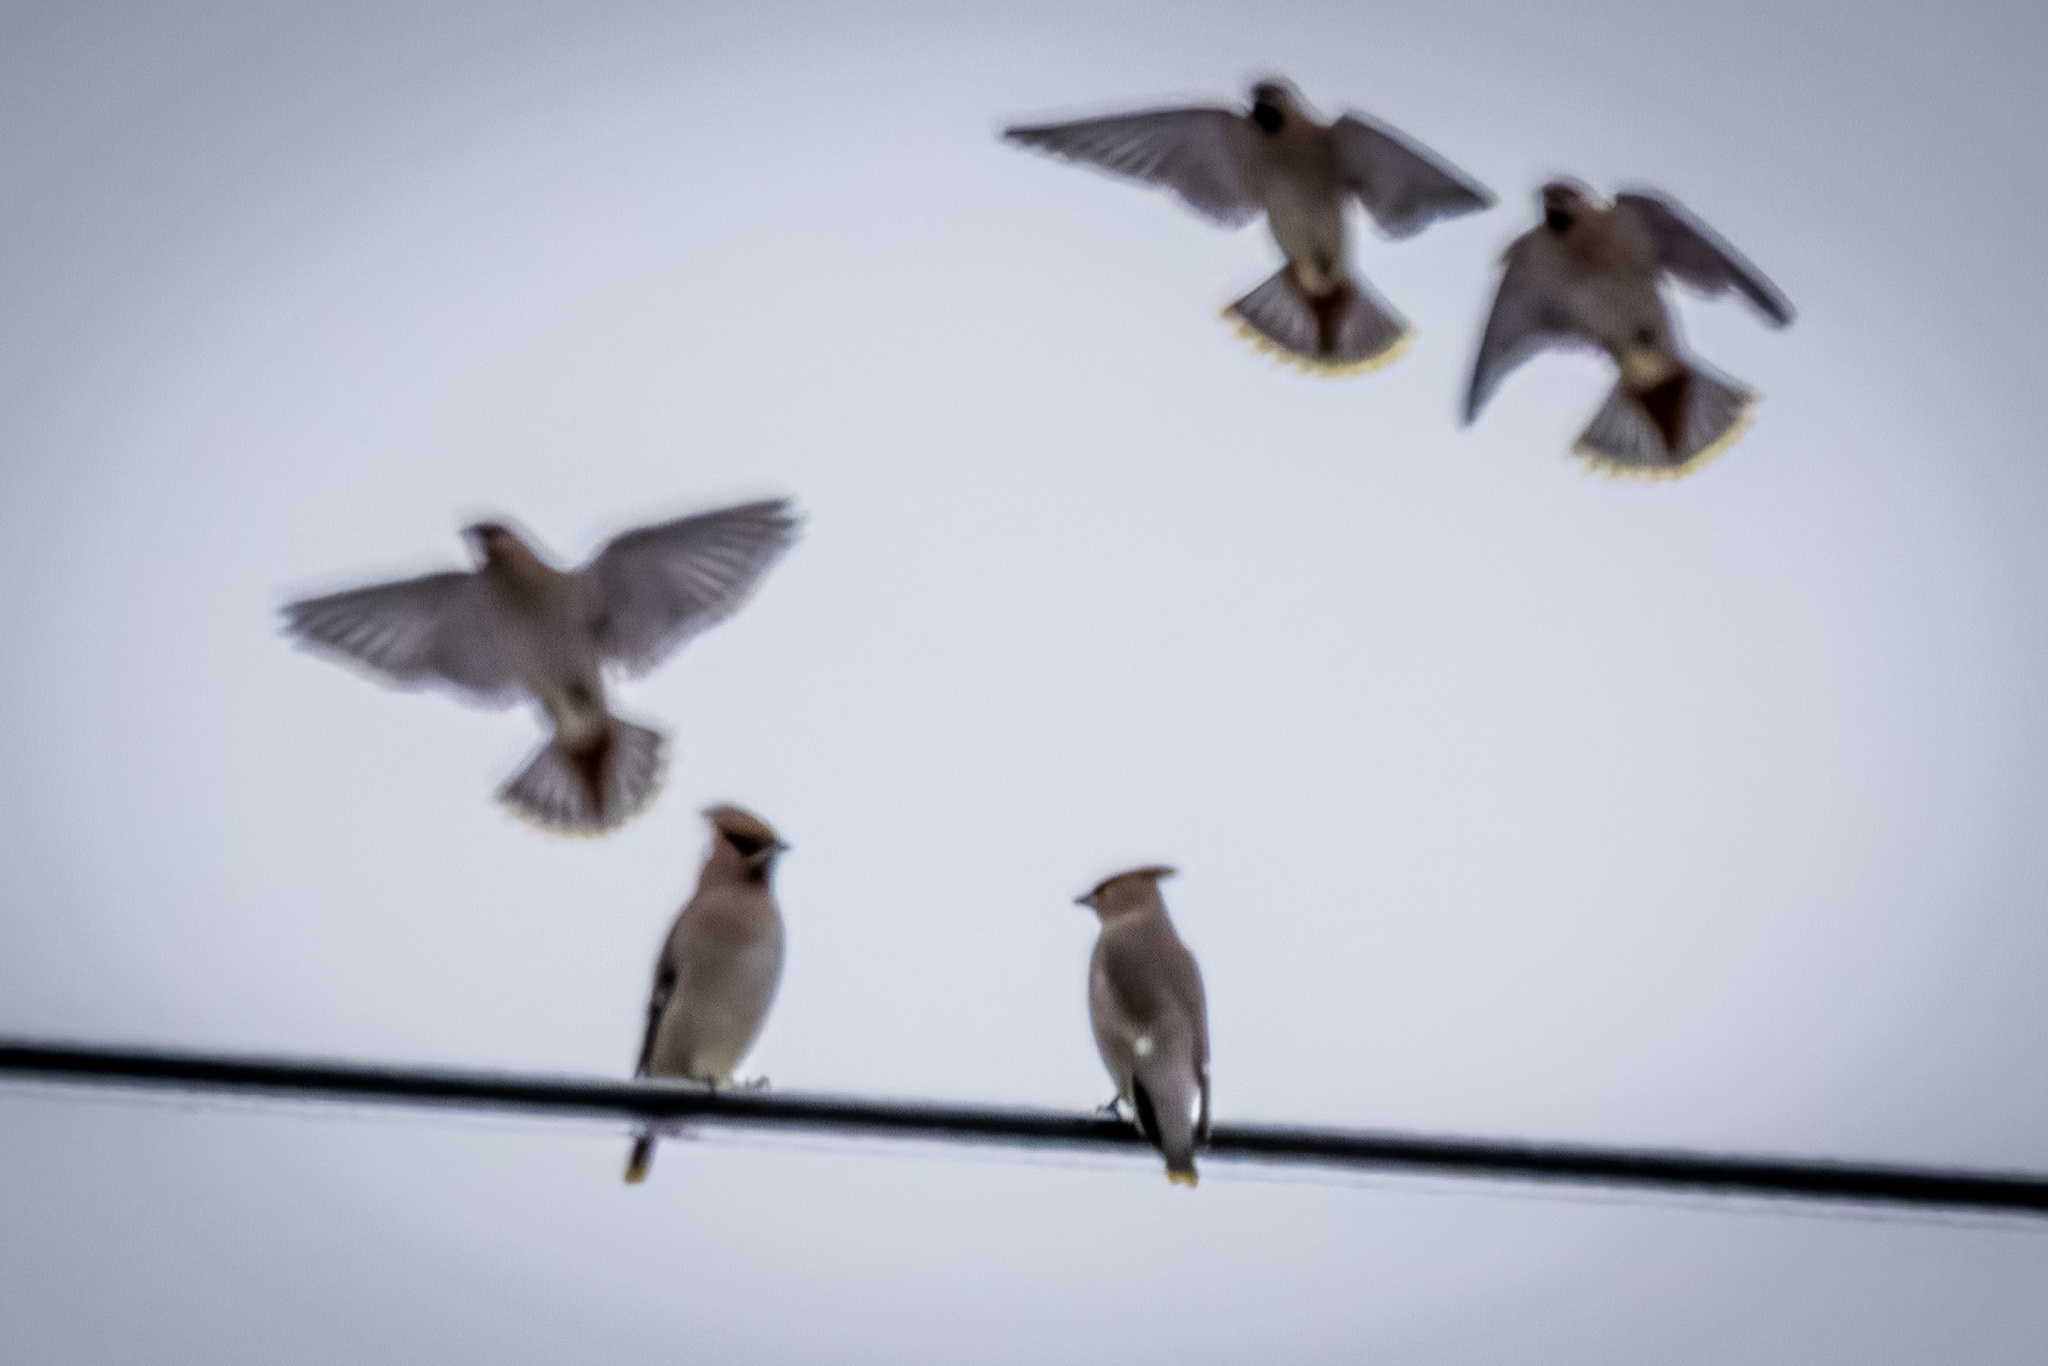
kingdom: Animalia
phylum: Chordata
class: Aves
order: Passeriformes
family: Bombycillidae
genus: Bombycilla
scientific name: Bombycilla garrulus
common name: Bohemian waxwing
